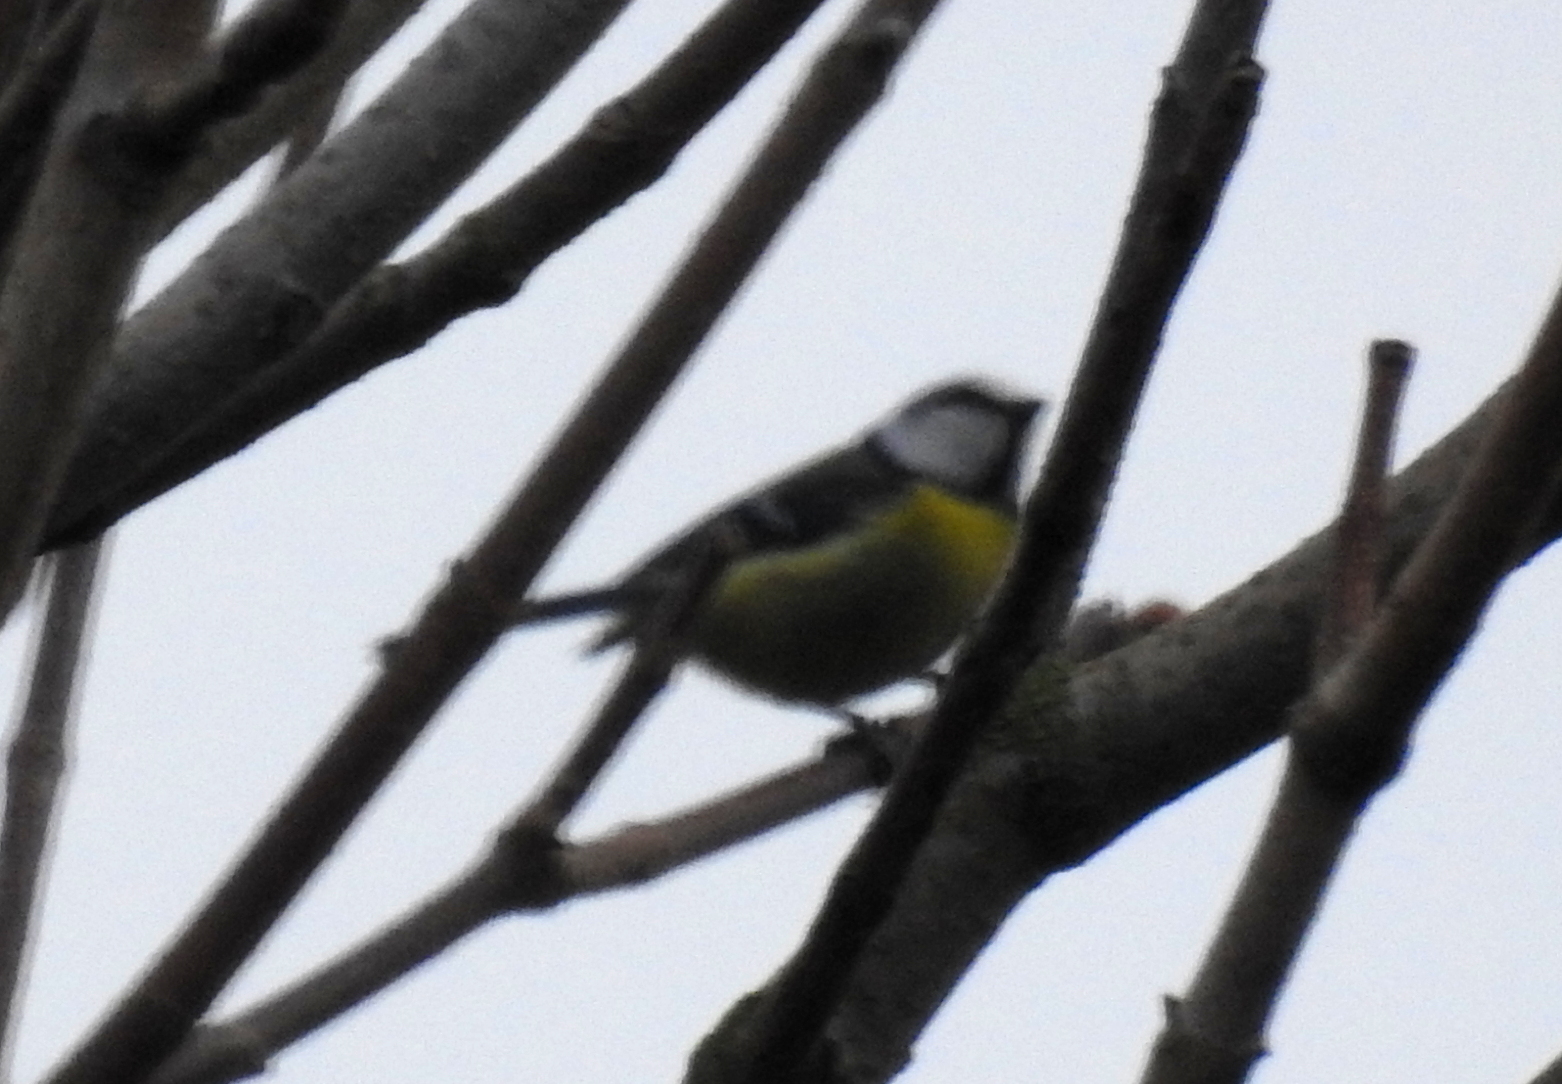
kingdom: Animalia
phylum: Chordata
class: Aves
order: Passeriformes
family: Paridae
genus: Cyanistes
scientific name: Cyanistes caeruleus
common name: Eurasian blue tit
